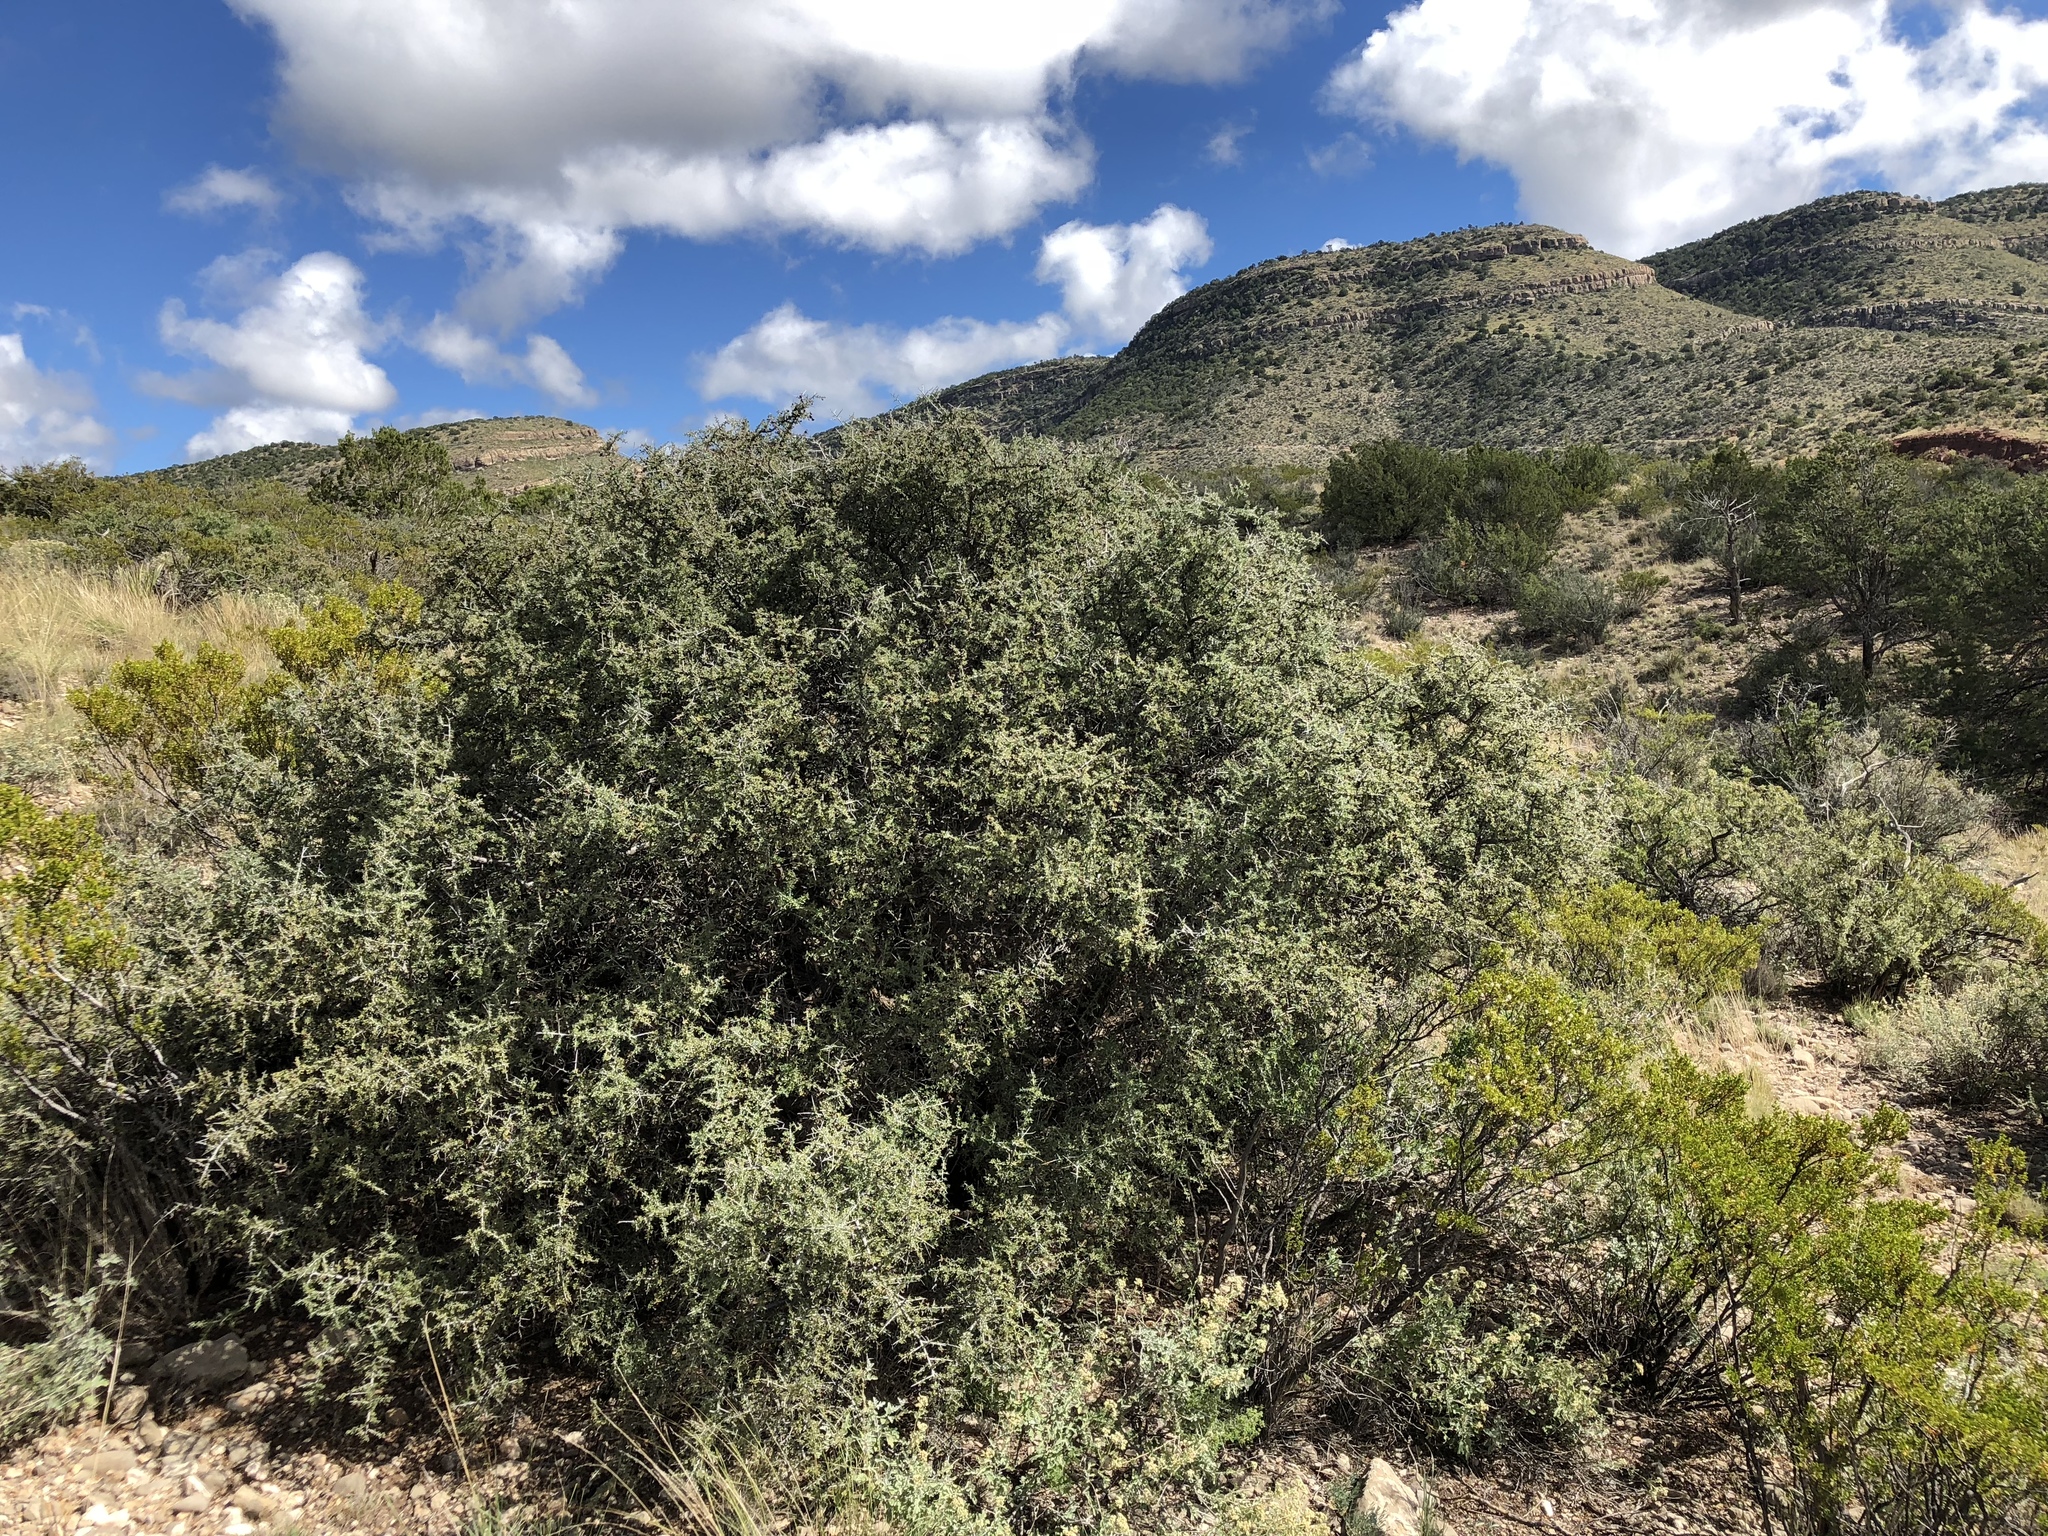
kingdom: Plantae
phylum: Tracheophyta
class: Magnoliopsida
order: Rosales
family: Rhamnaceae
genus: Condalia
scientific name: Condalia warnockii
